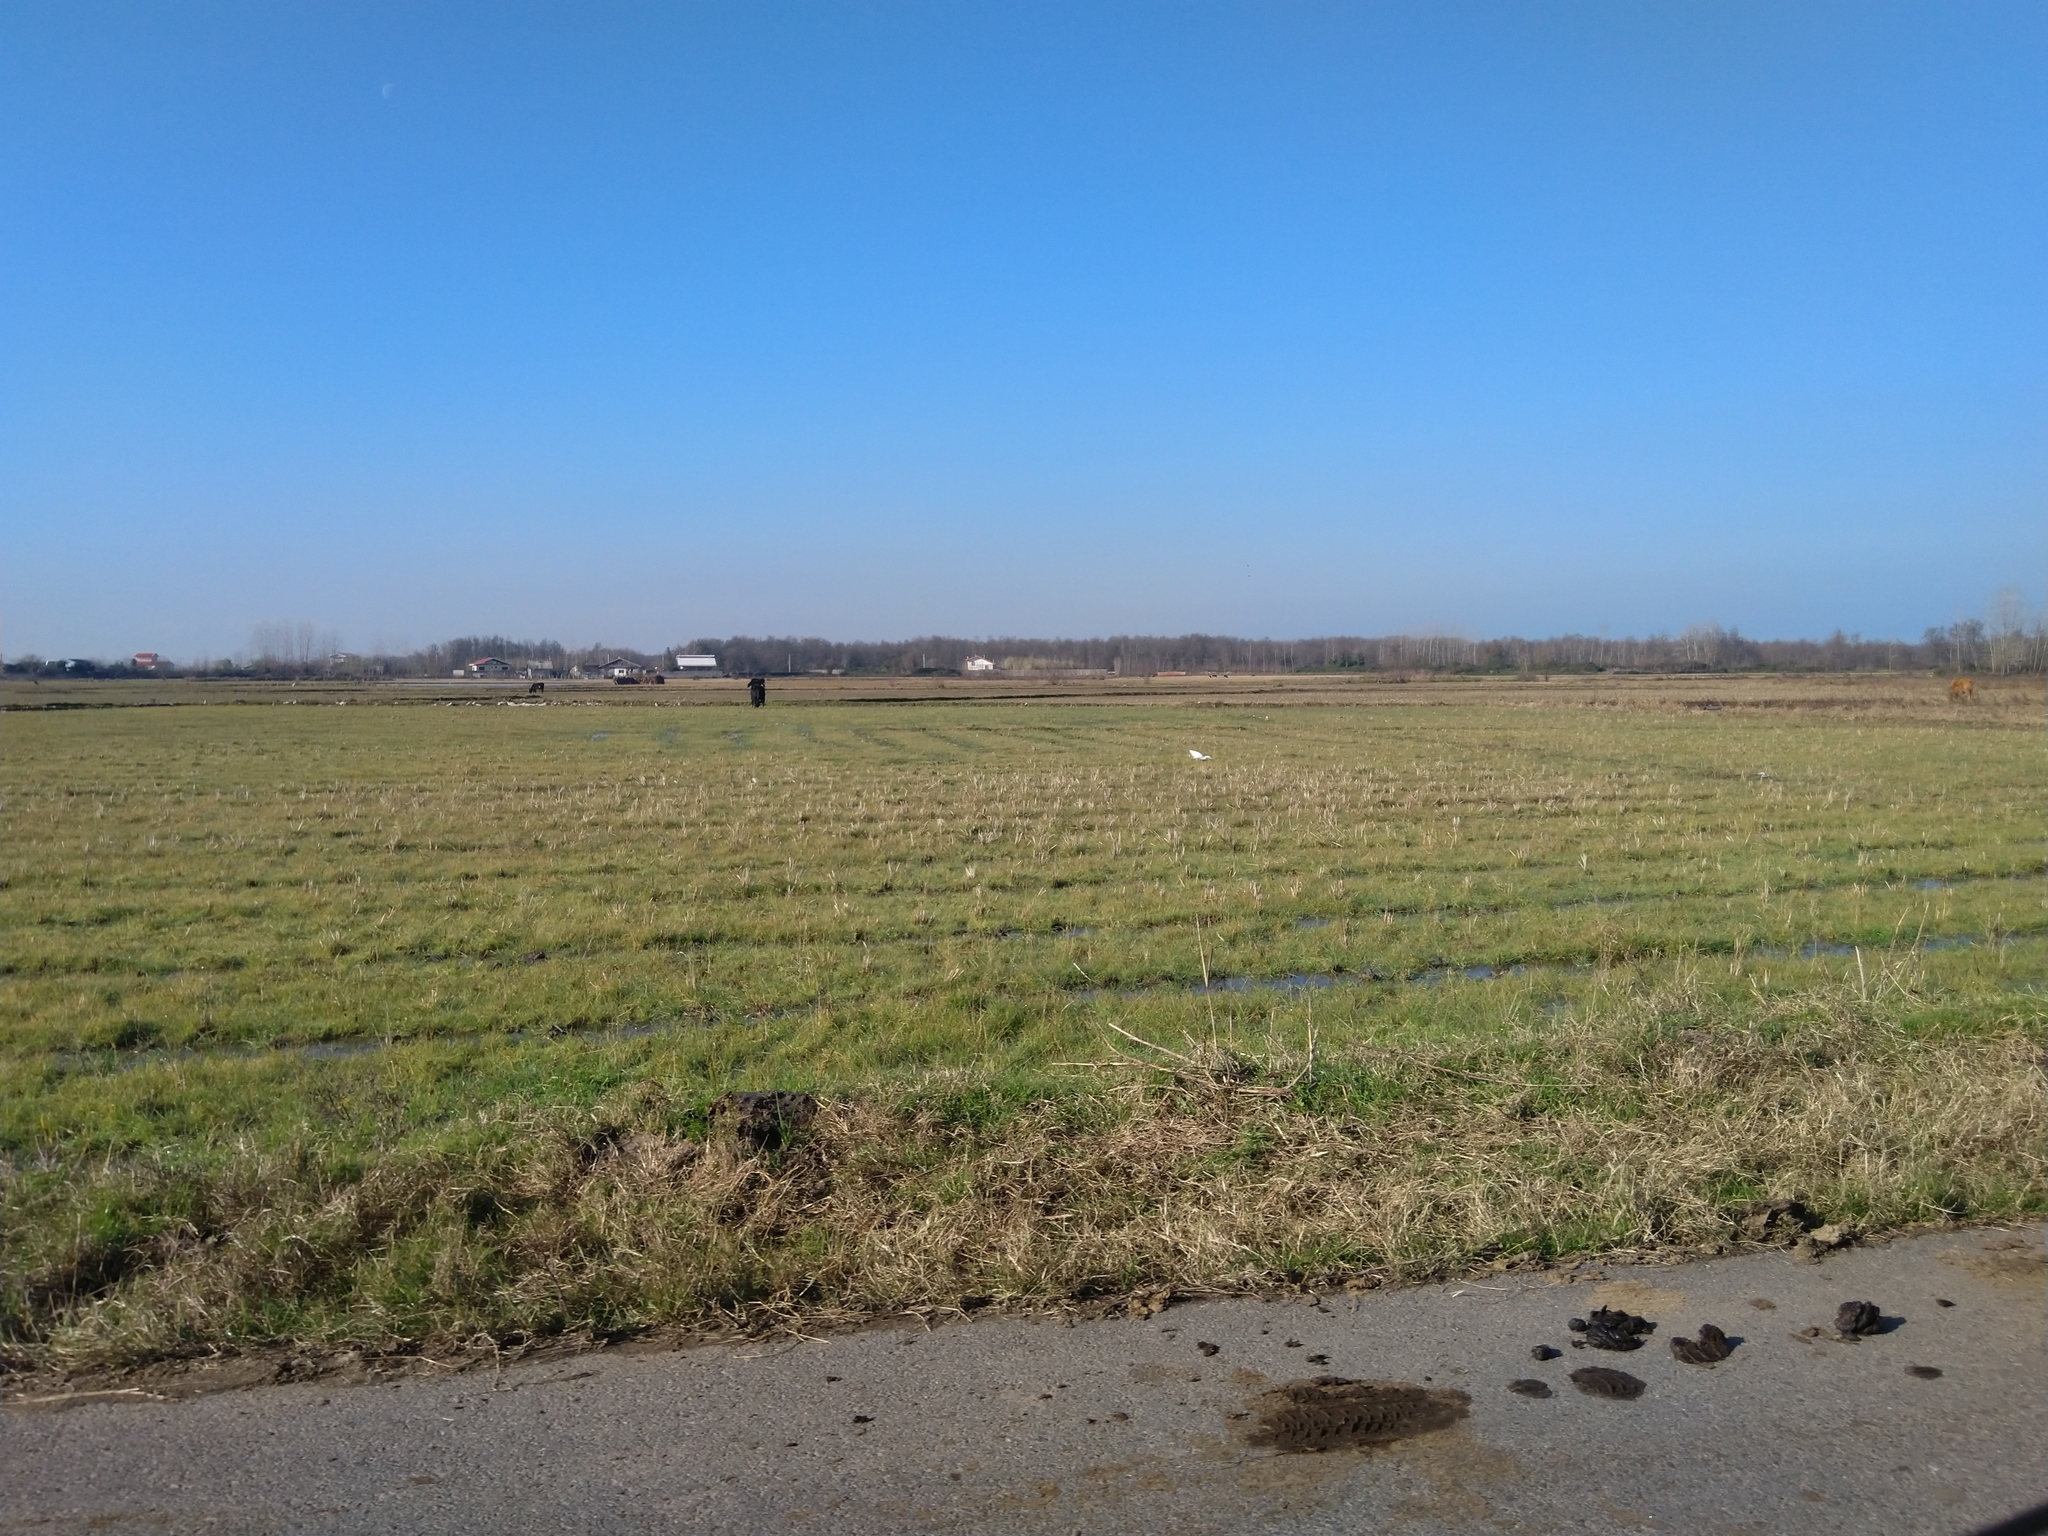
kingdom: Animalia
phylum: Chordata
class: Aves
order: Pelecaniformes
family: Ardeidae
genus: Bubulcus
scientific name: Bubulcus ibis
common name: Cattle egret
